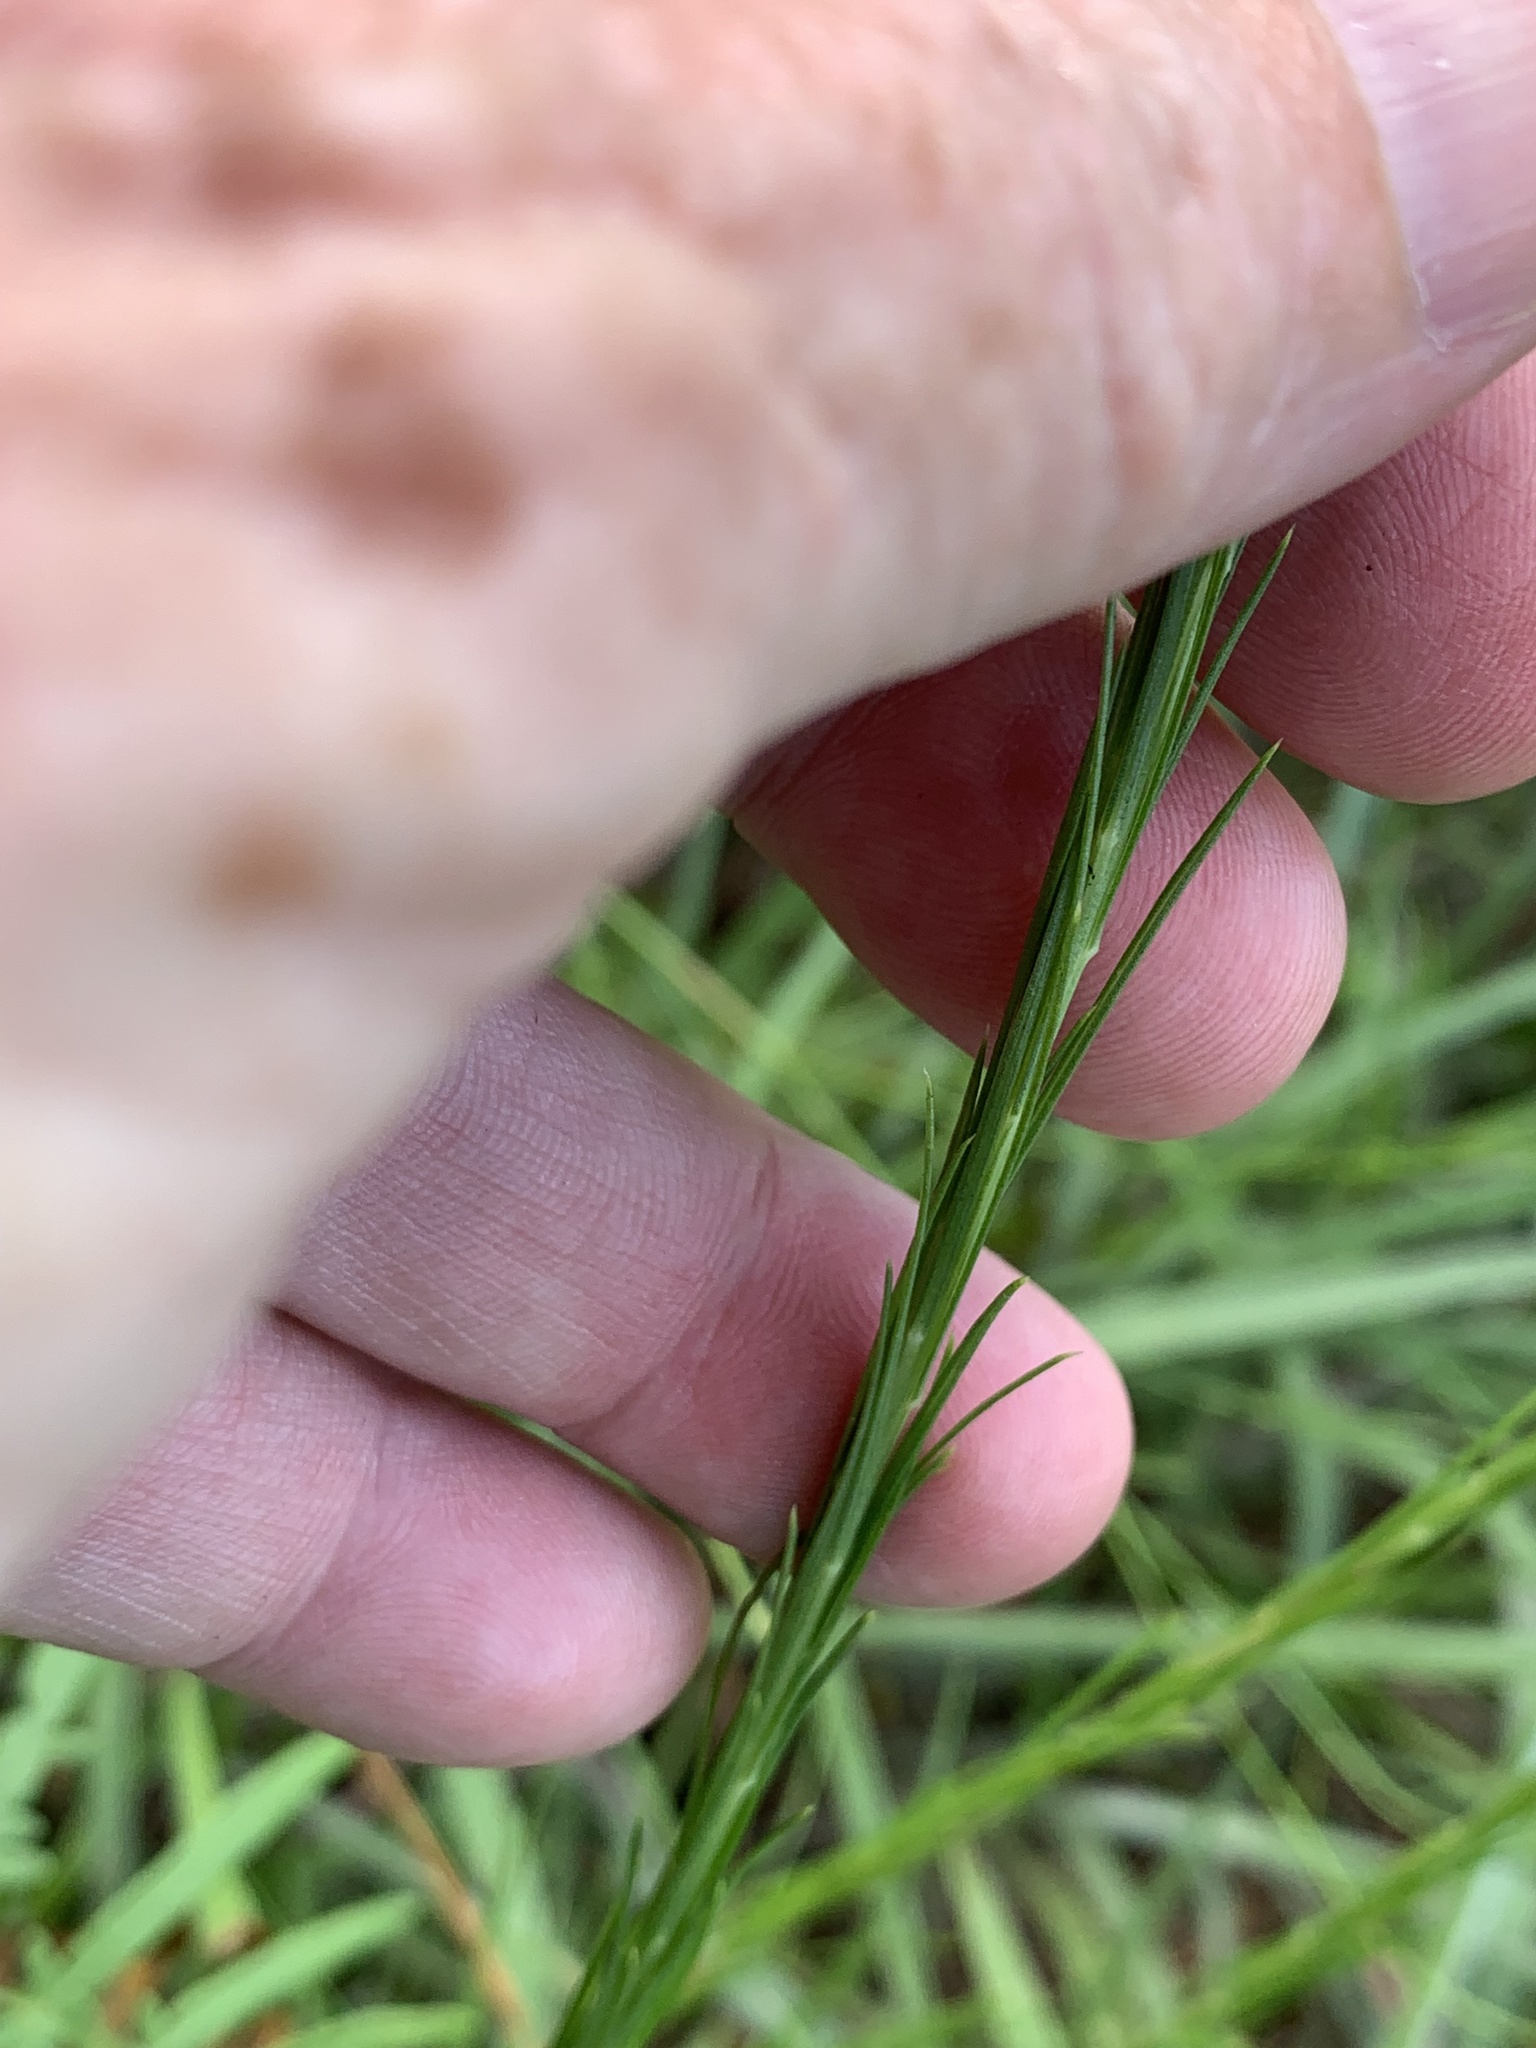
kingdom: Plantae
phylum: Tracheophyta
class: Magnoliopsida
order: Asterales
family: Asteraceae
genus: Liatris
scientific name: Liatris acidota
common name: Gulf coast gayfeather
